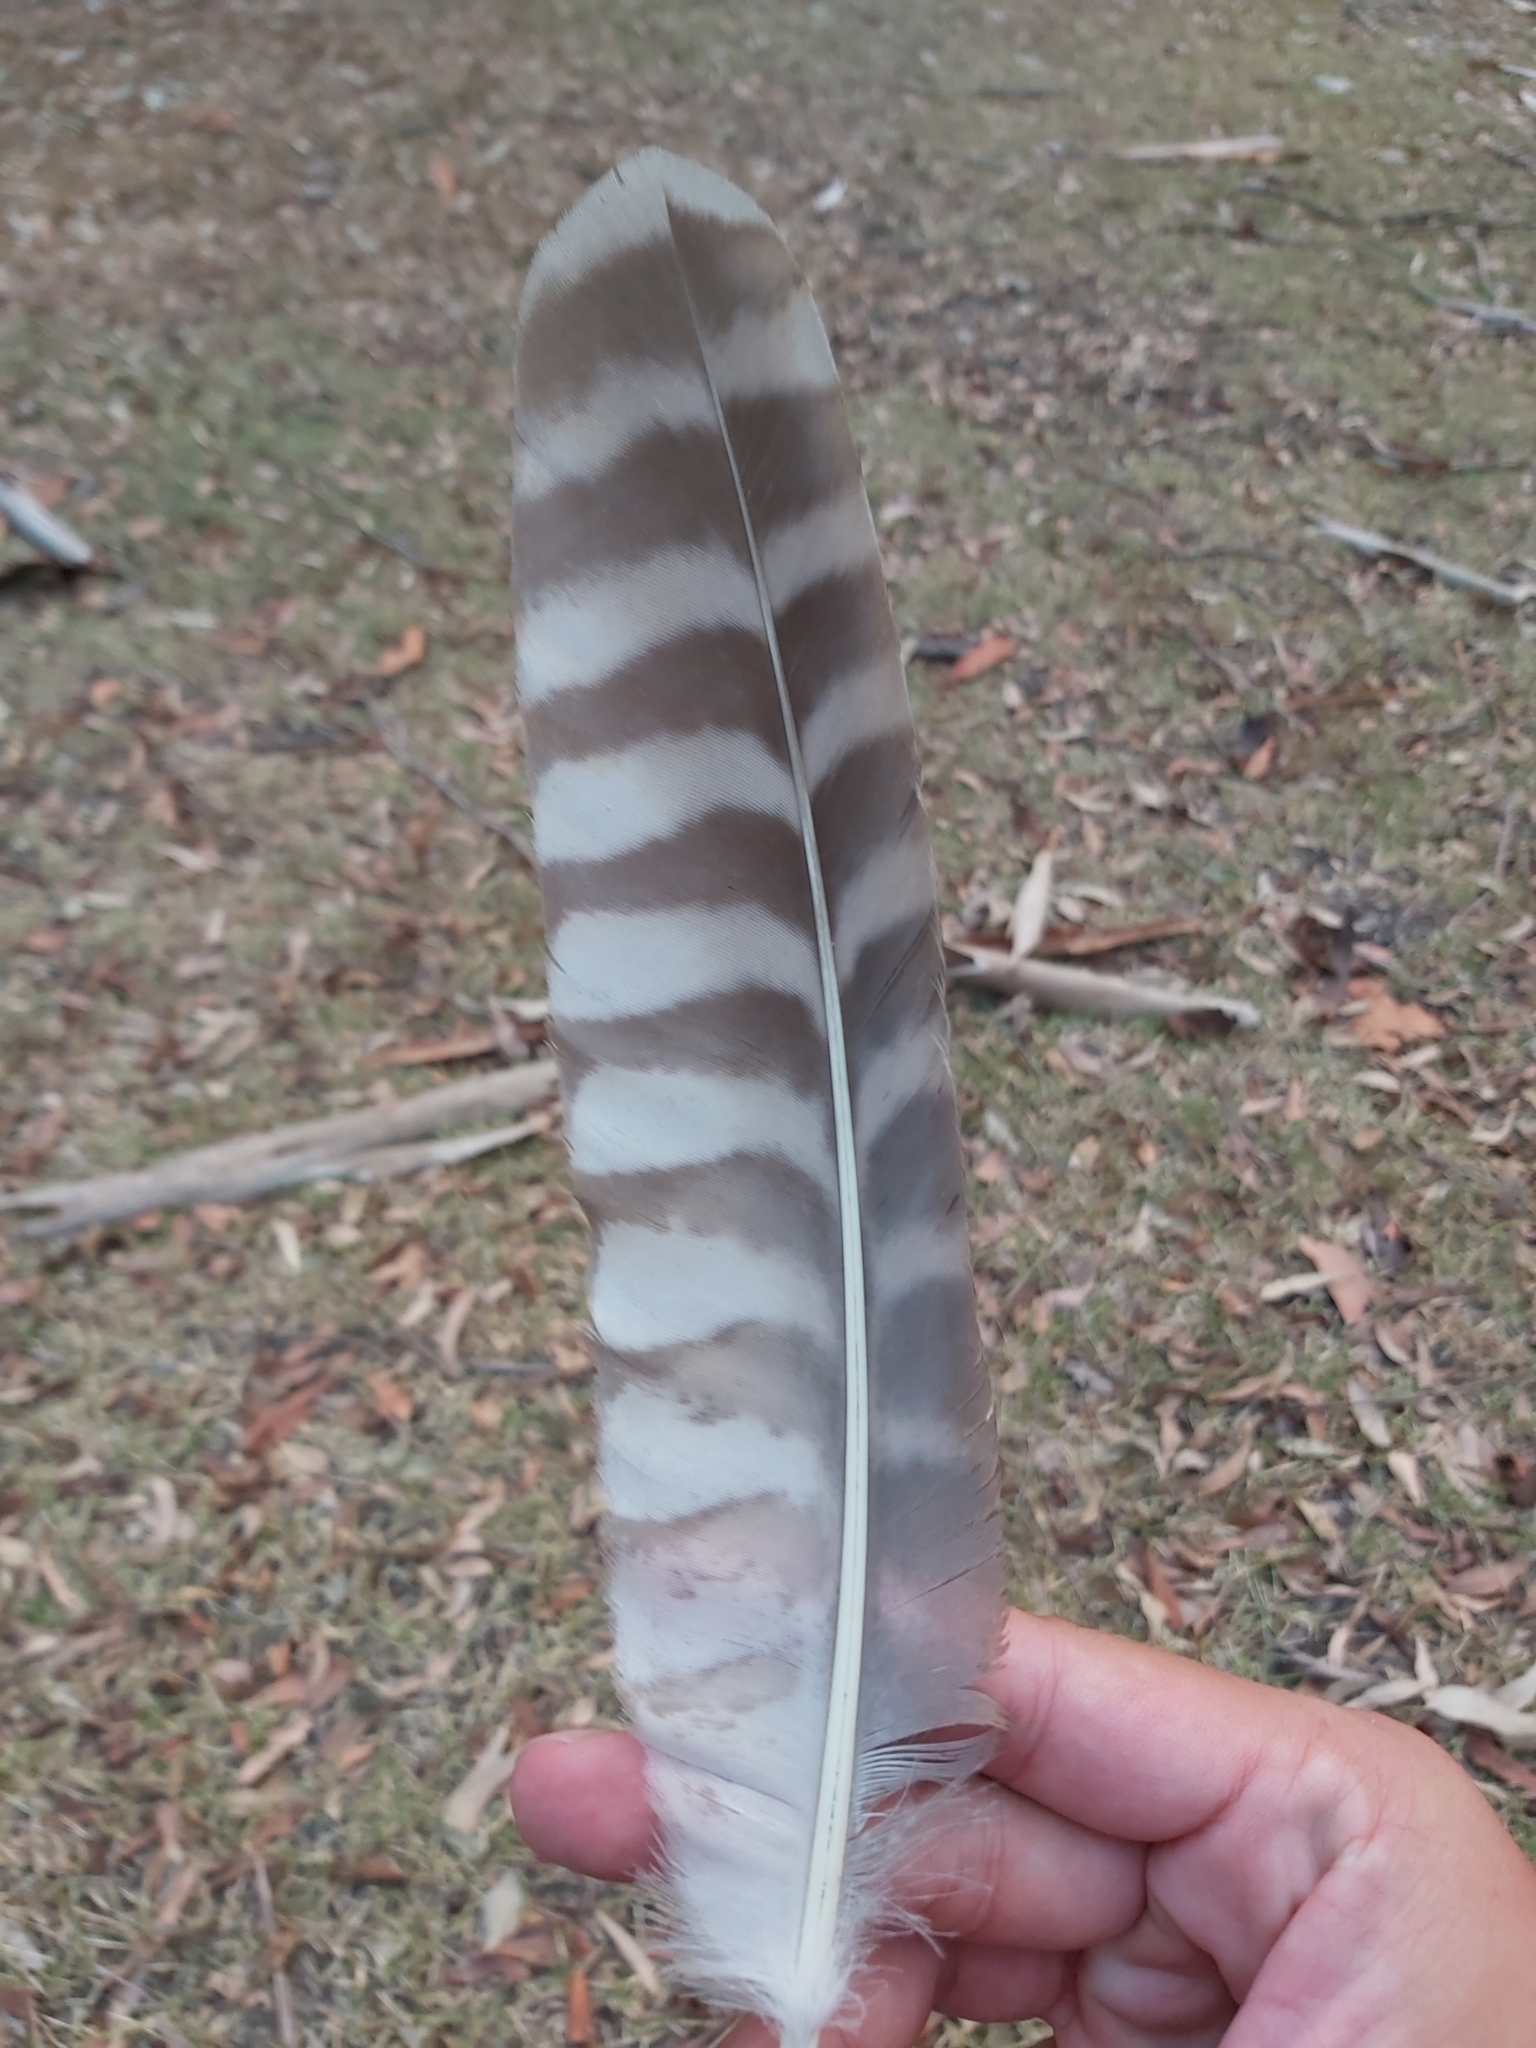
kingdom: Animalia
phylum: Chordata
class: Aves
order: Strigiformes
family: Strigidae
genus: Ninox
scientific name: Ninox strenua
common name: Powerful owl
